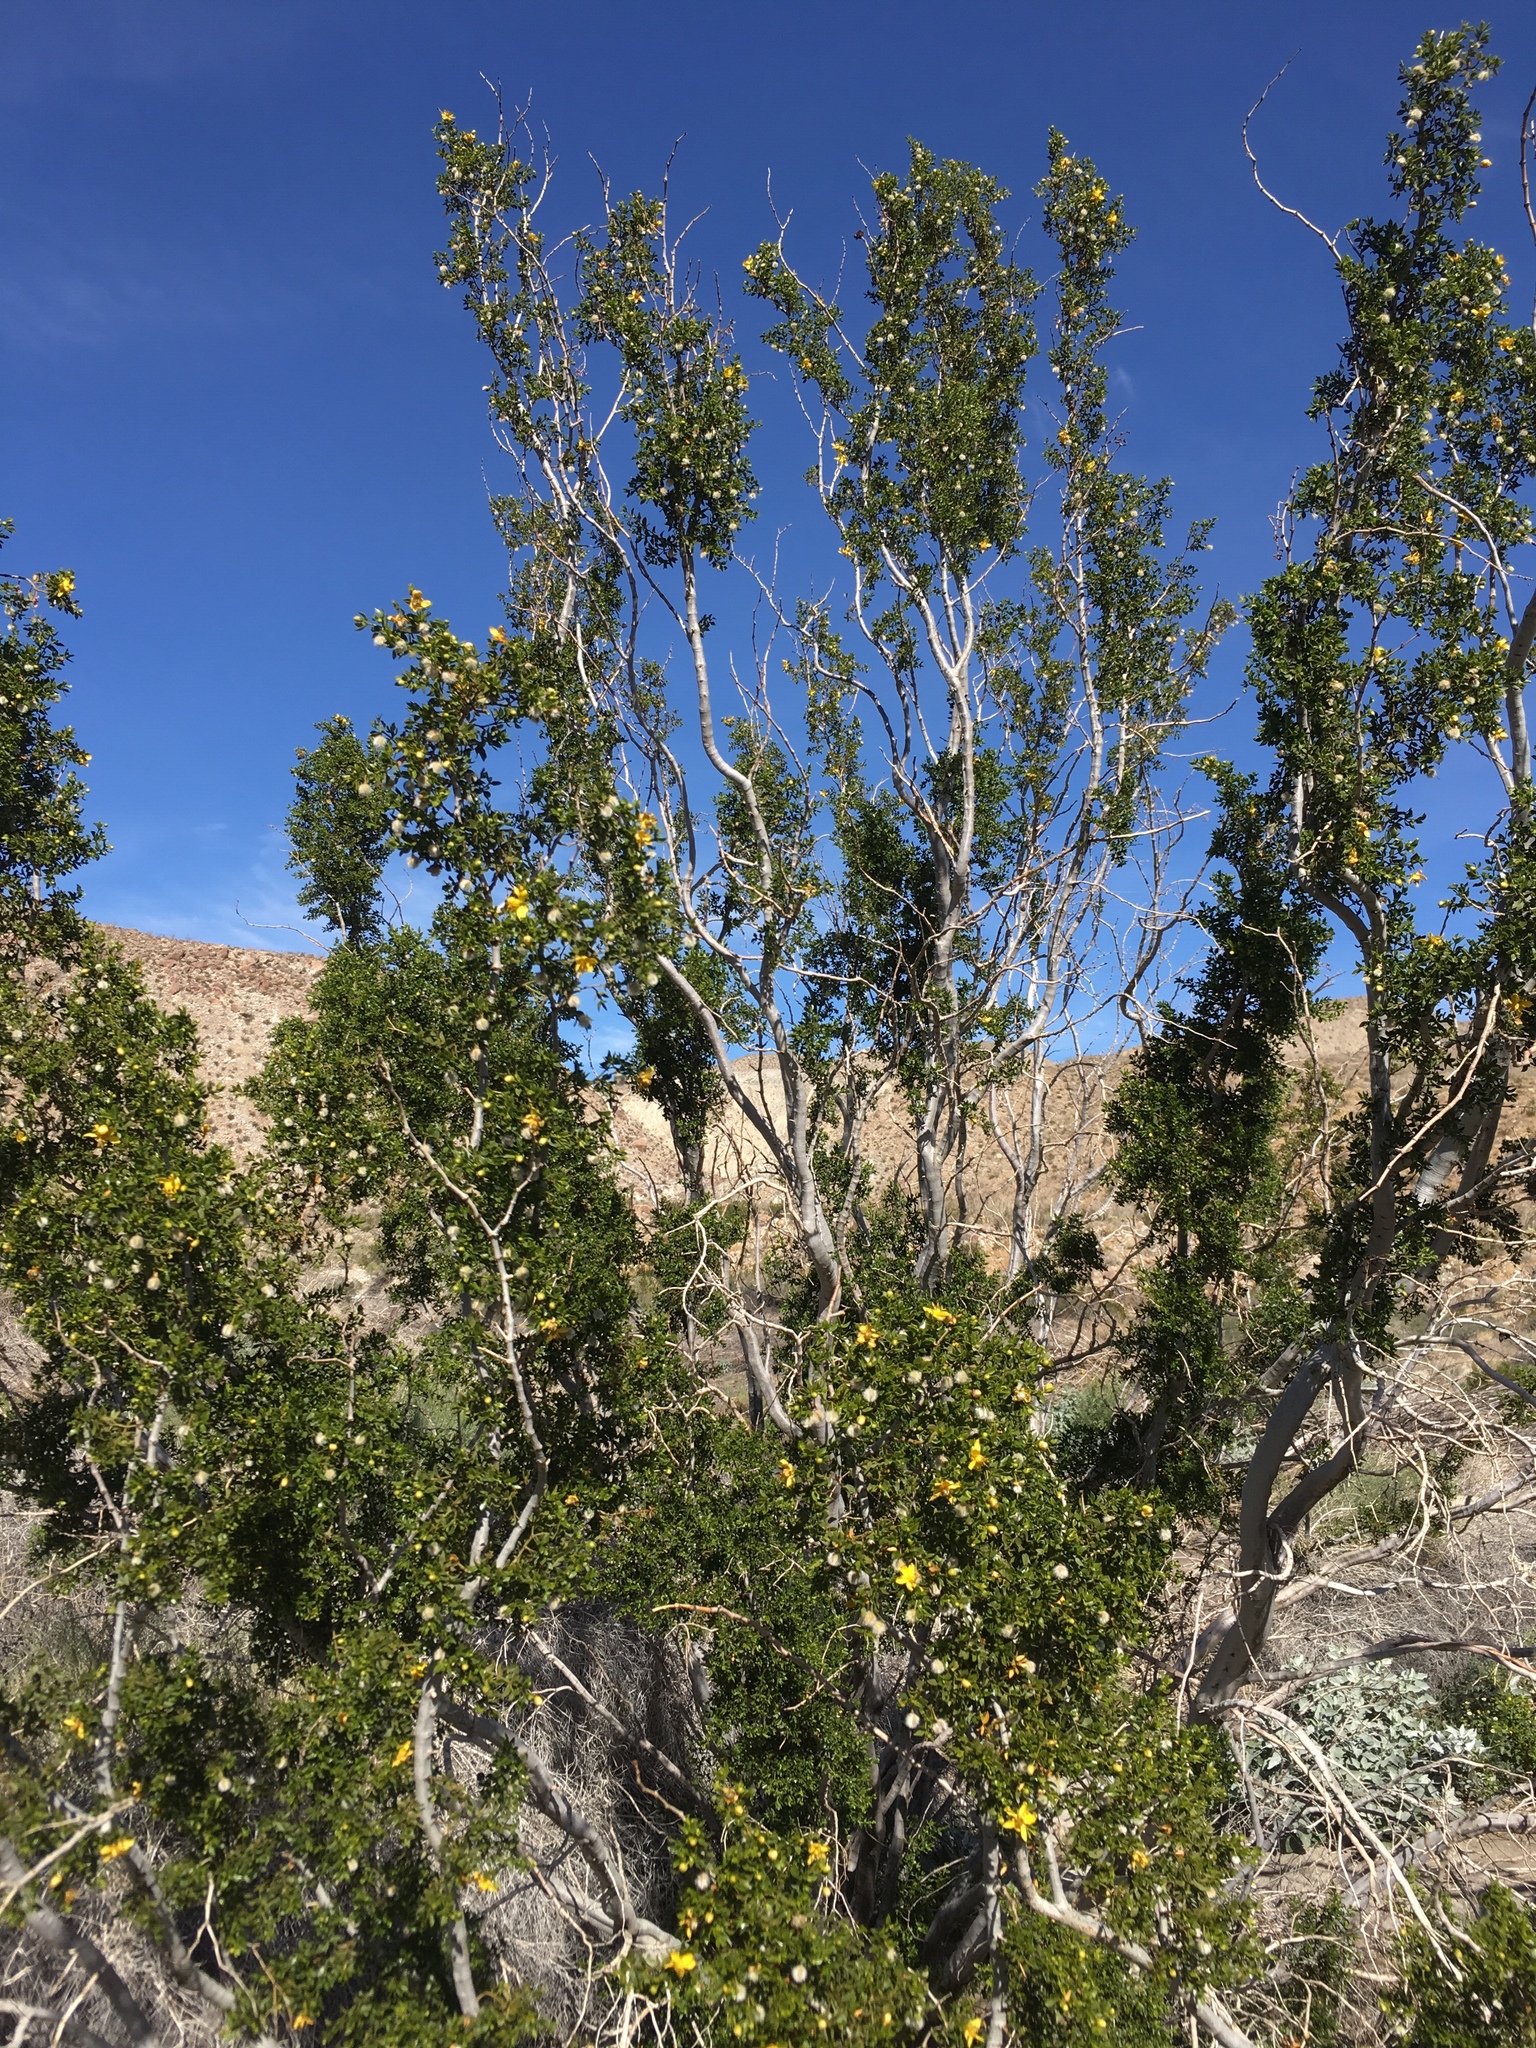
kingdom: Animalia
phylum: Arthropoda
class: Insecta
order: Diptera
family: Cecidomyiidae
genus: Asphondylia
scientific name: Asphondylia auripila
